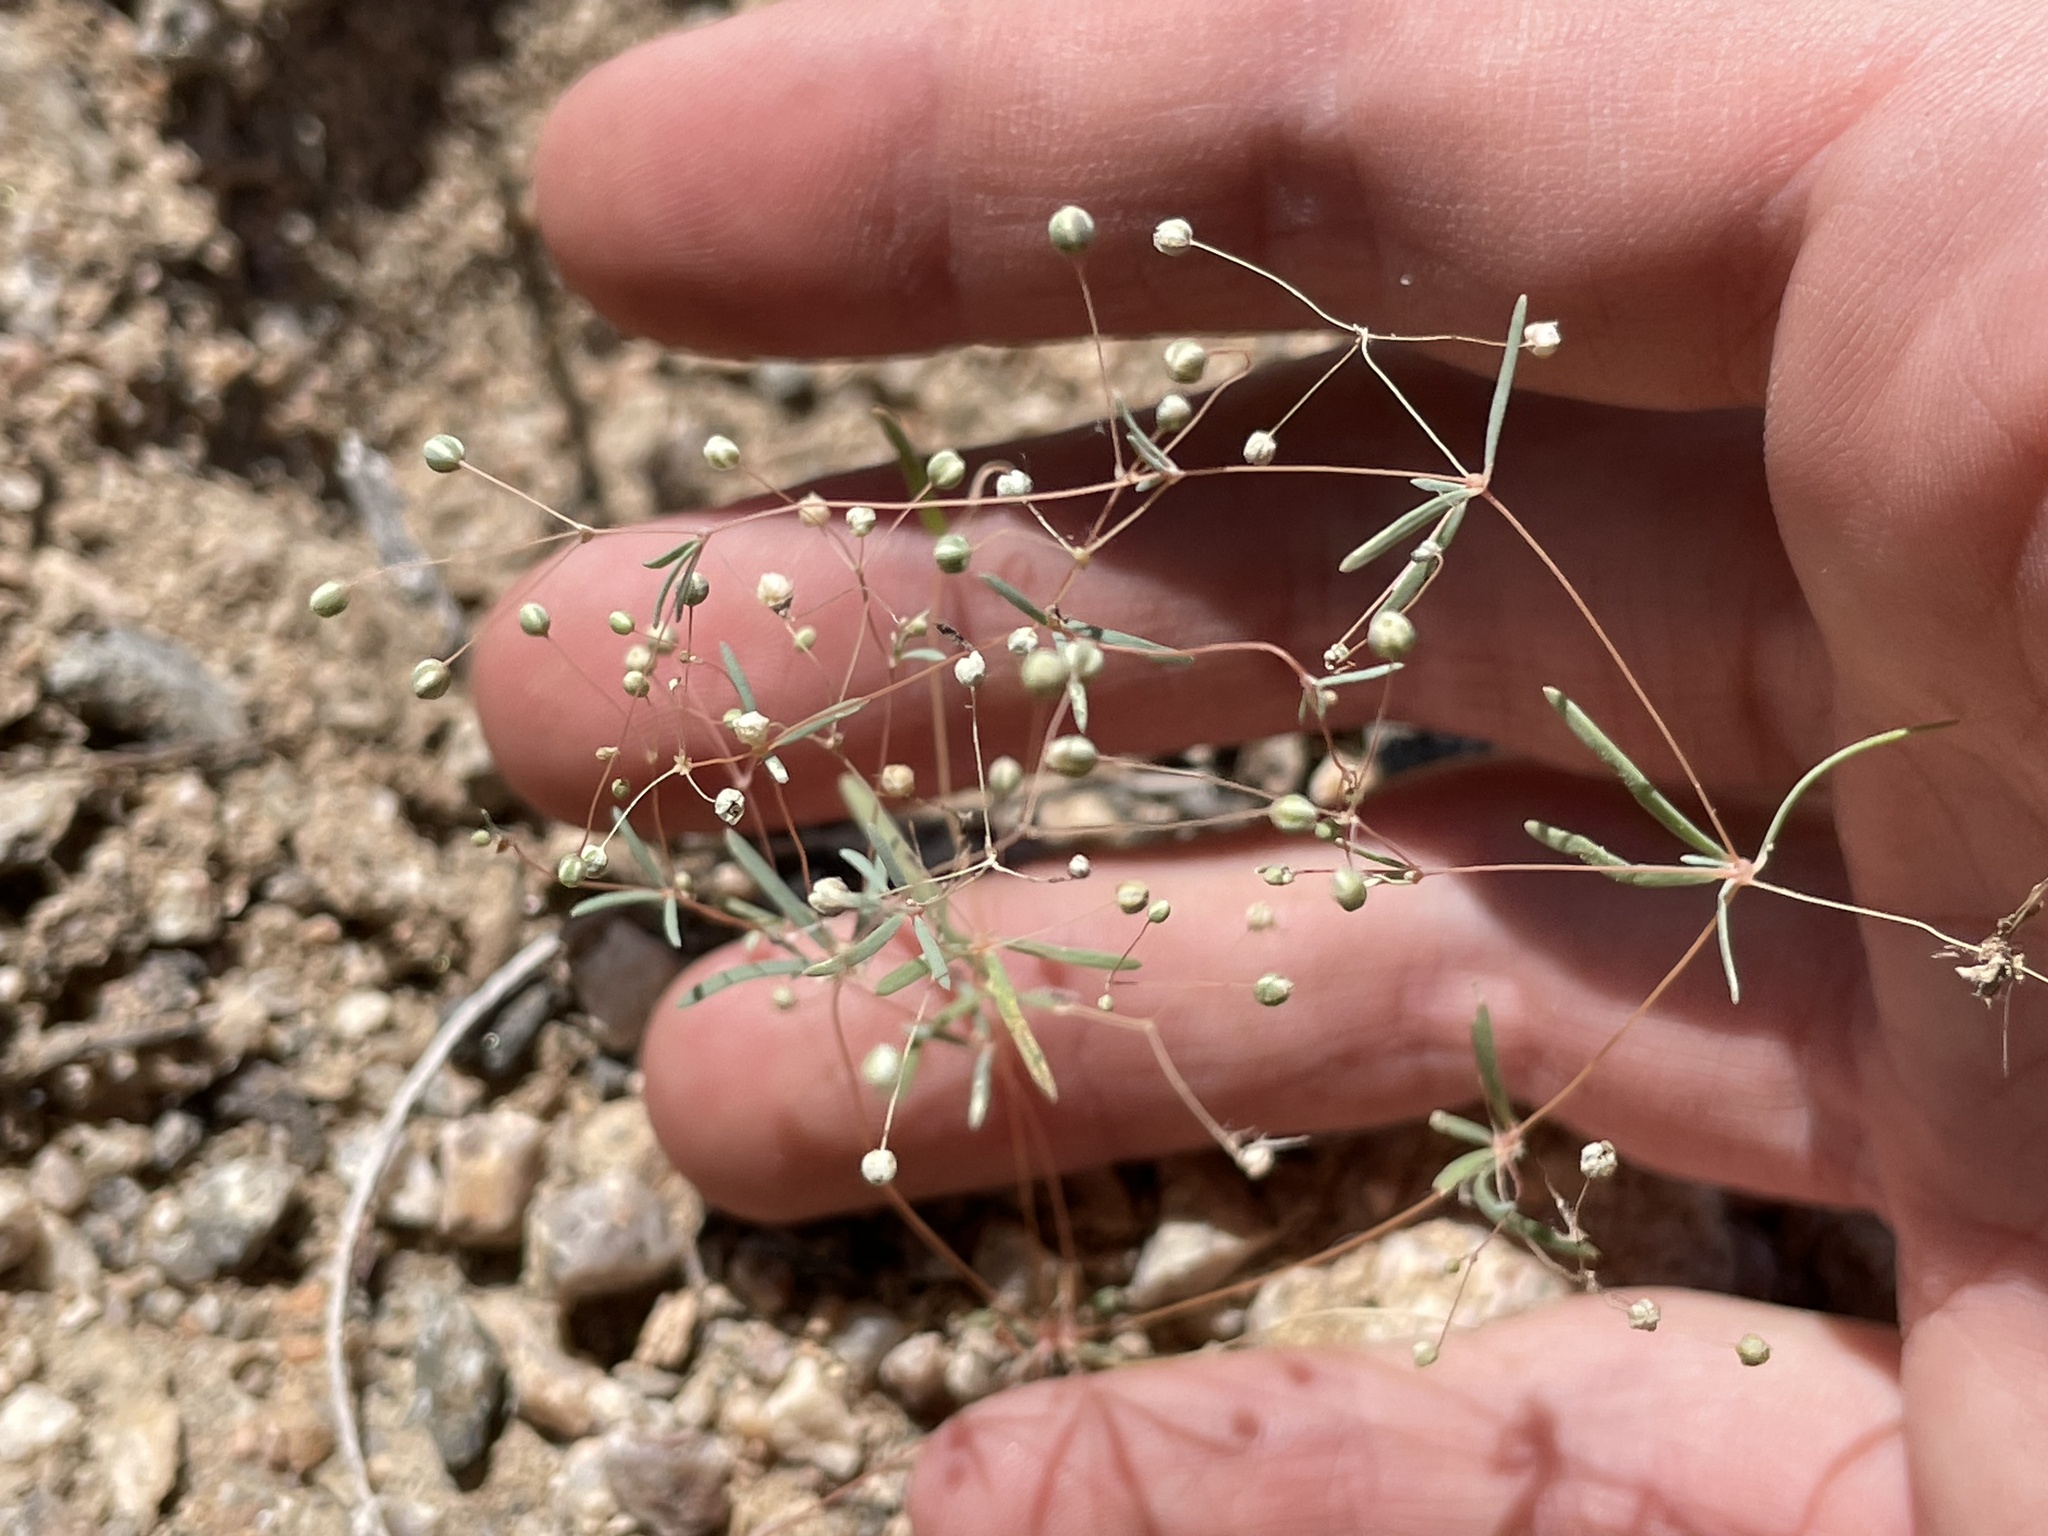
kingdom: Plantae
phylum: Tracheophyta
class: Magnoliopsida
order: Caryophyllales
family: Molluginaceae
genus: Hypertelis
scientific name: Hypertelis umbellata
